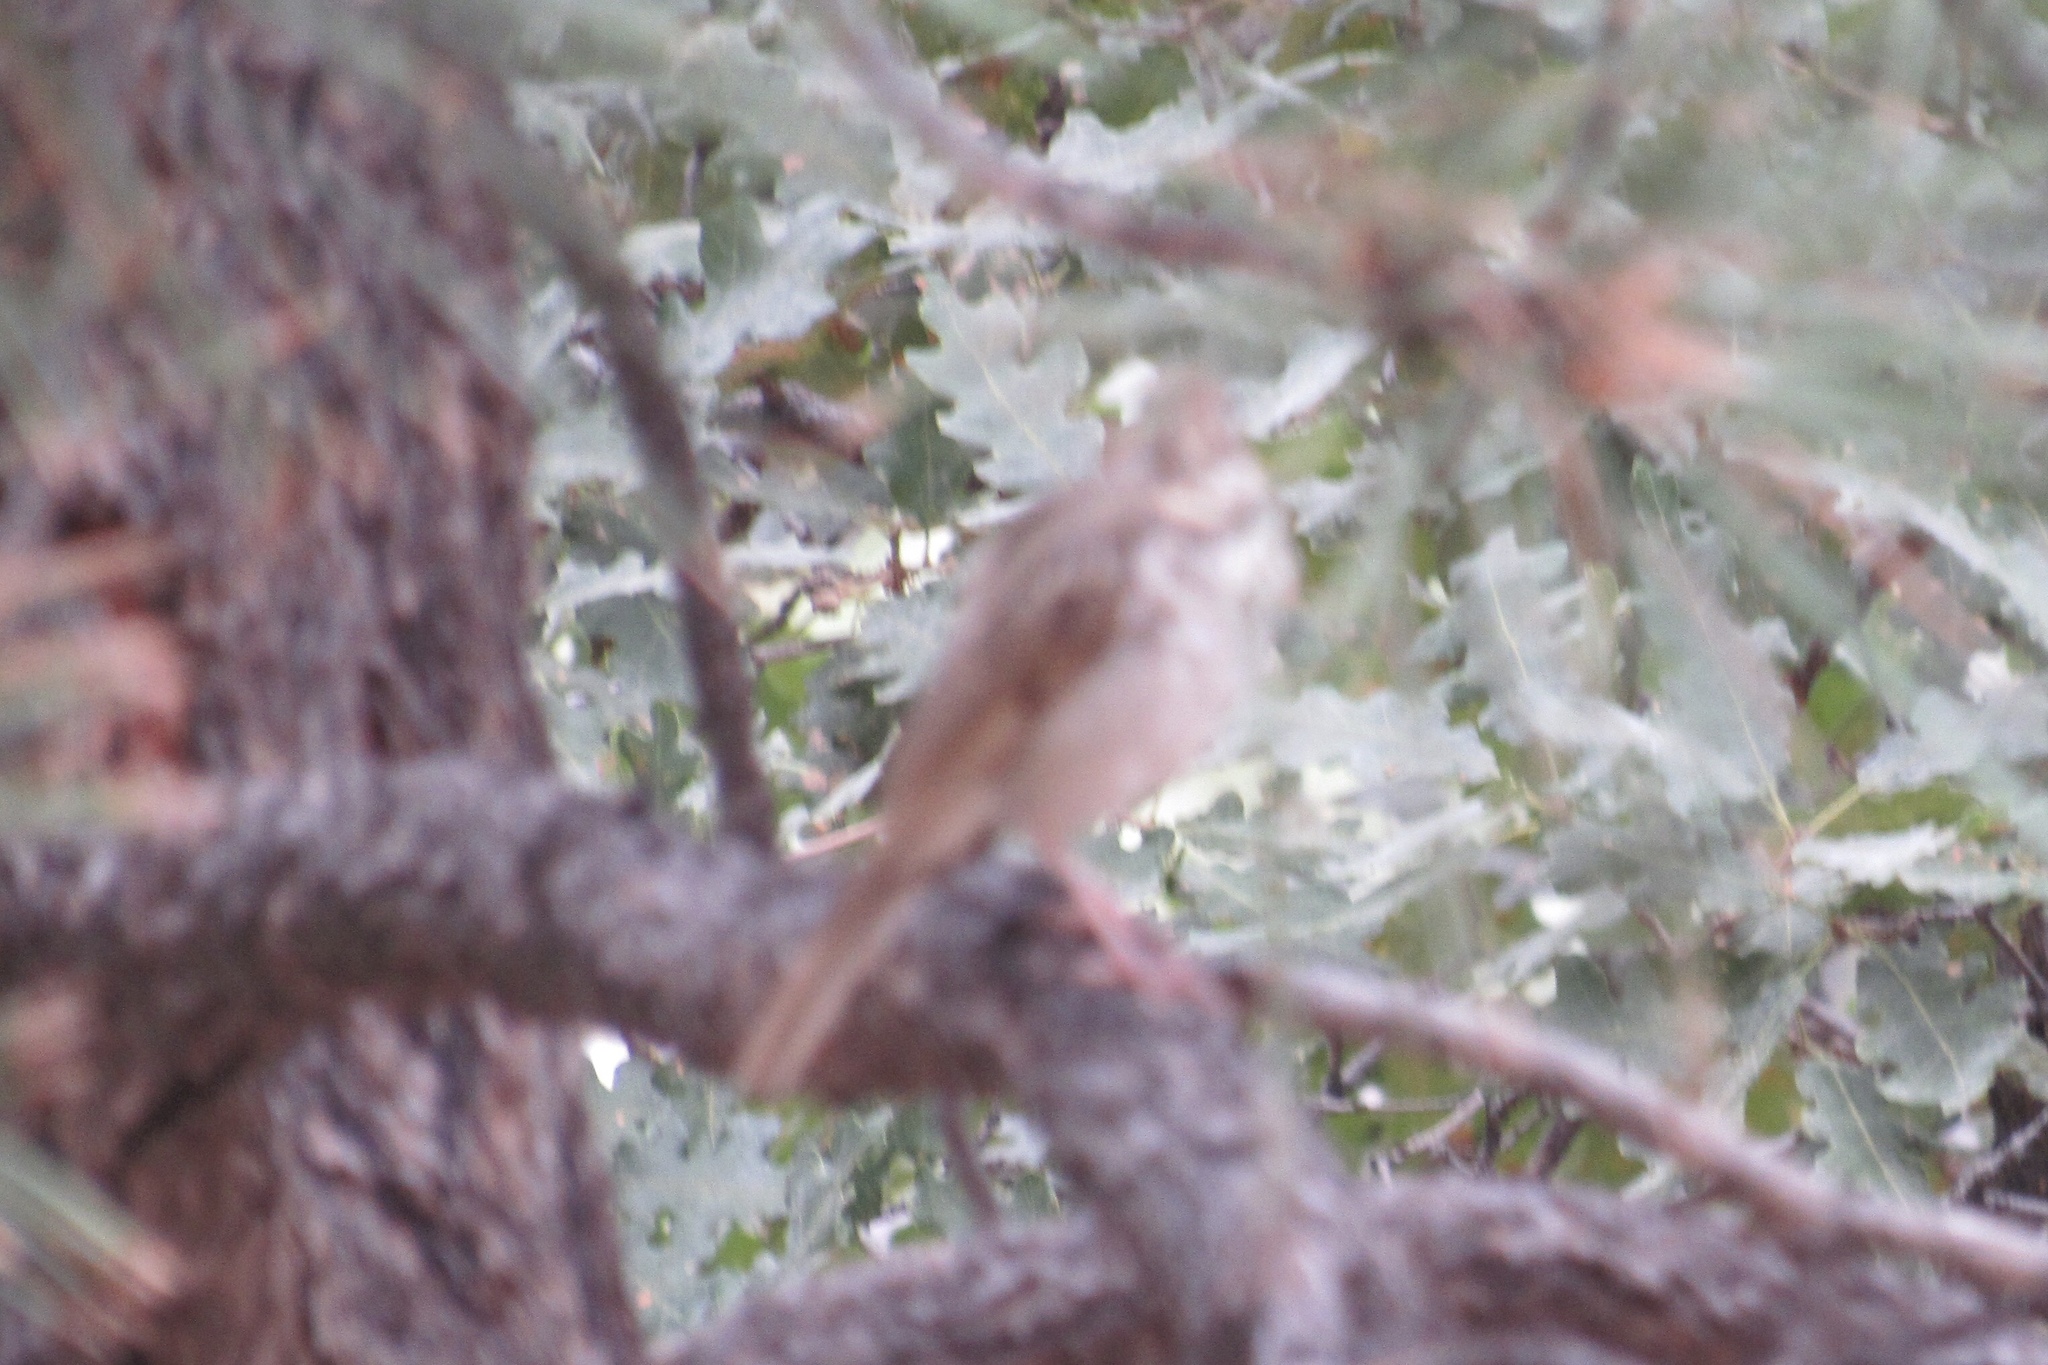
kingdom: Animalia
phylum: Chordata
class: Aves
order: Passeriformes
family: Turdidae
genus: Catharus
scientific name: Catharus guttatus
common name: Hermit thrush
